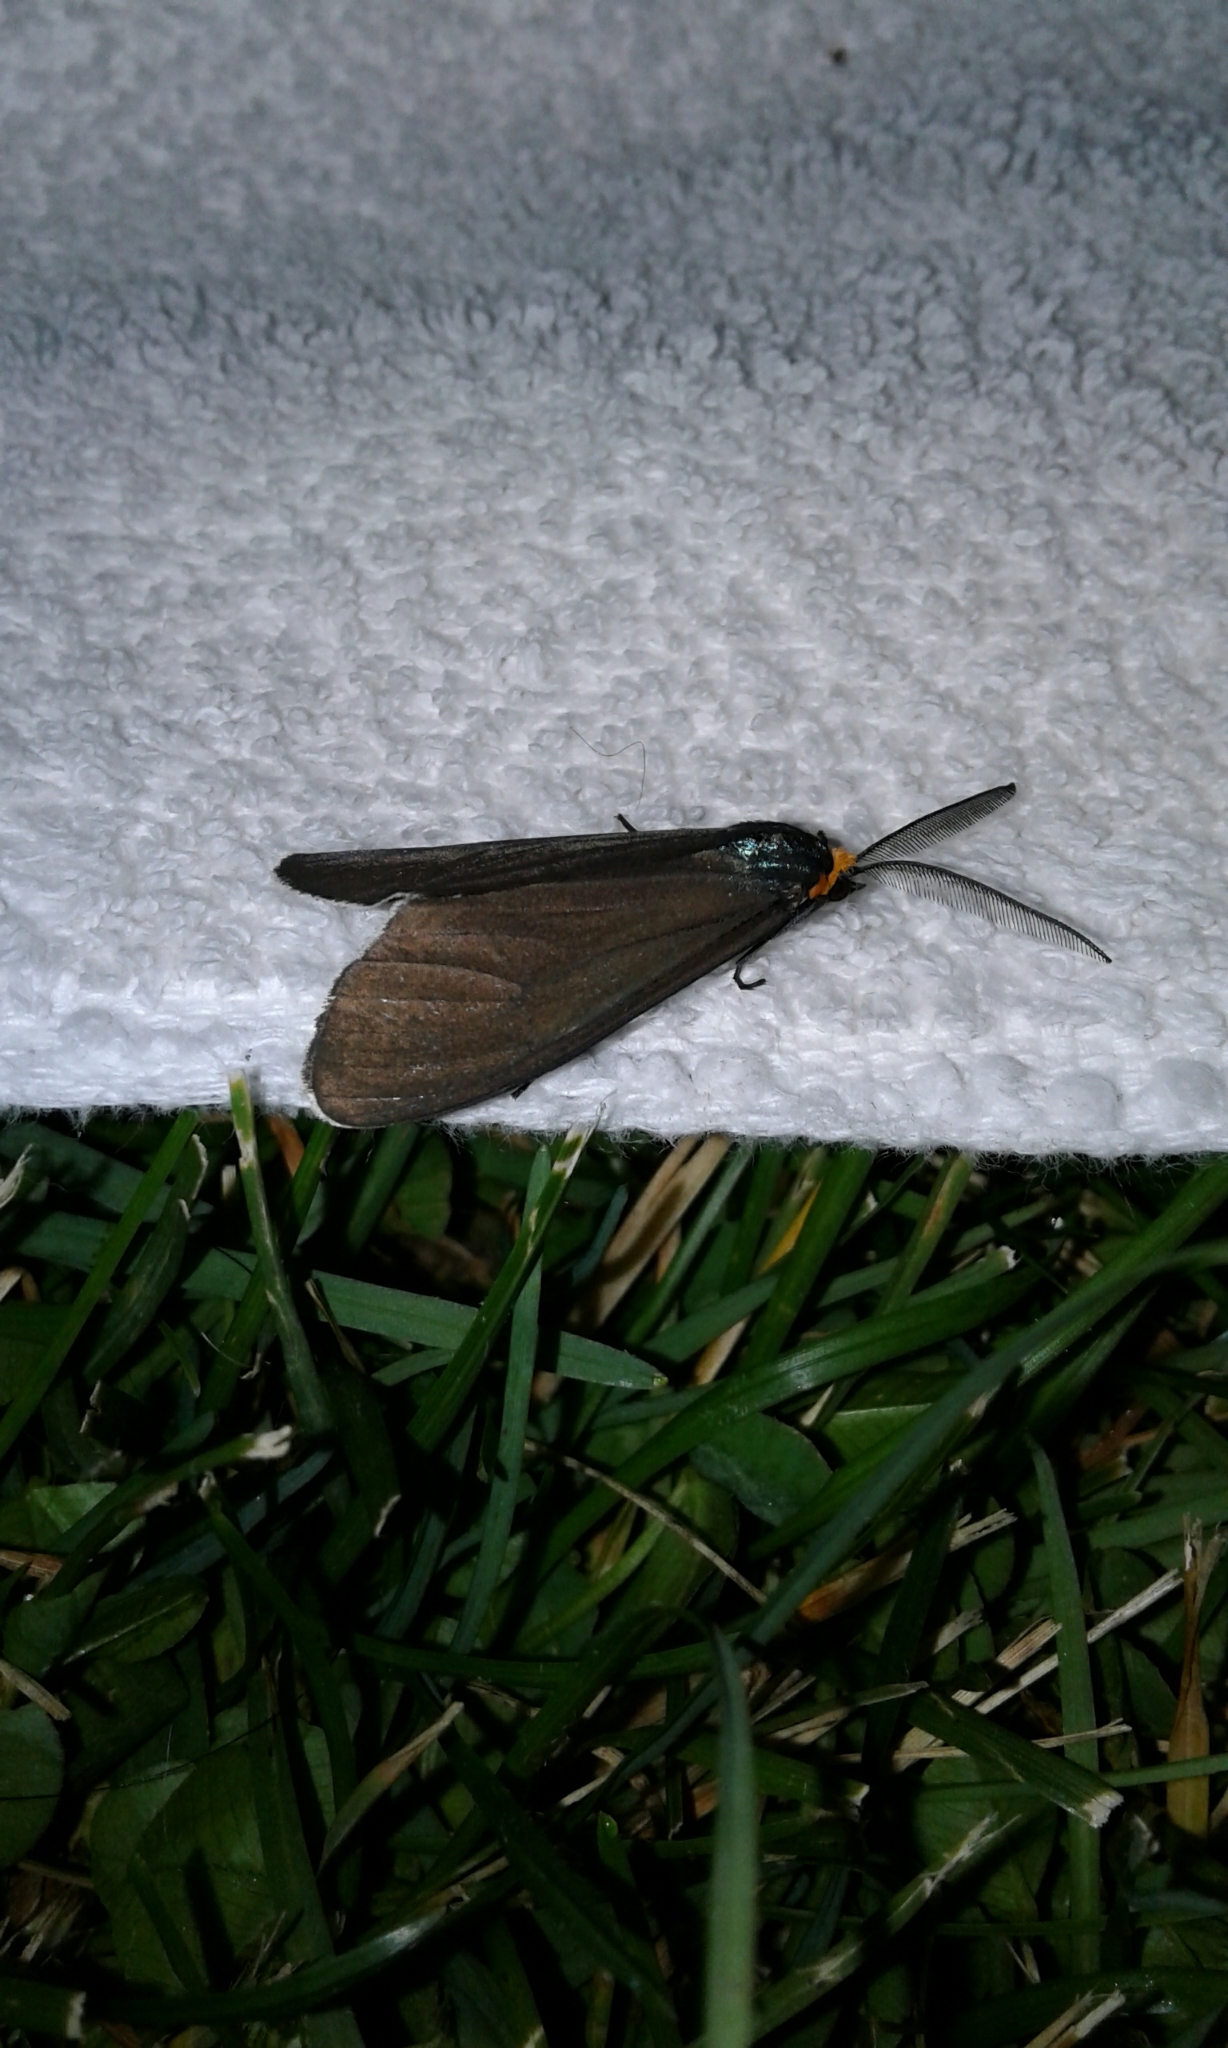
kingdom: Animalia
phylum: Arthropoda
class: Insecta
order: Lepidoptera
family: Erebidae
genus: Ctenucha
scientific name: Ctenucha virginica
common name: Virginia ctenucha moth
